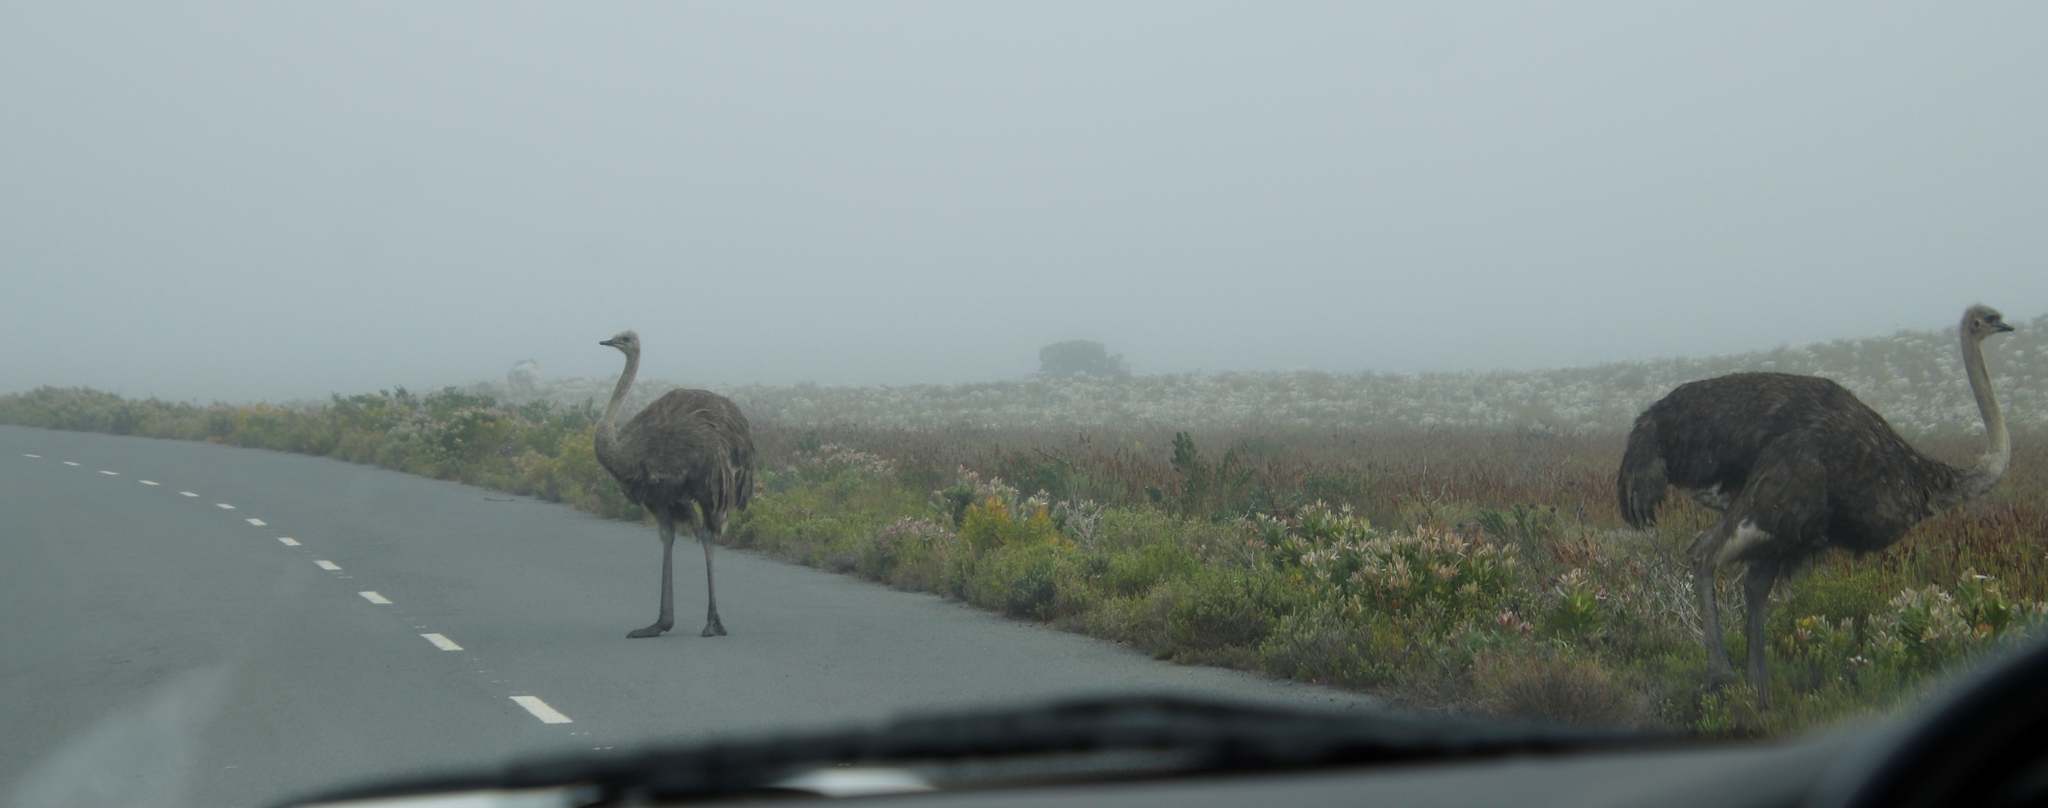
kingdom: Animalia
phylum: Chordata
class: Aves
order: Struthioniformes
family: Struthionidae
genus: Struthio
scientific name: Struthio camelus
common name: Common ostrich
